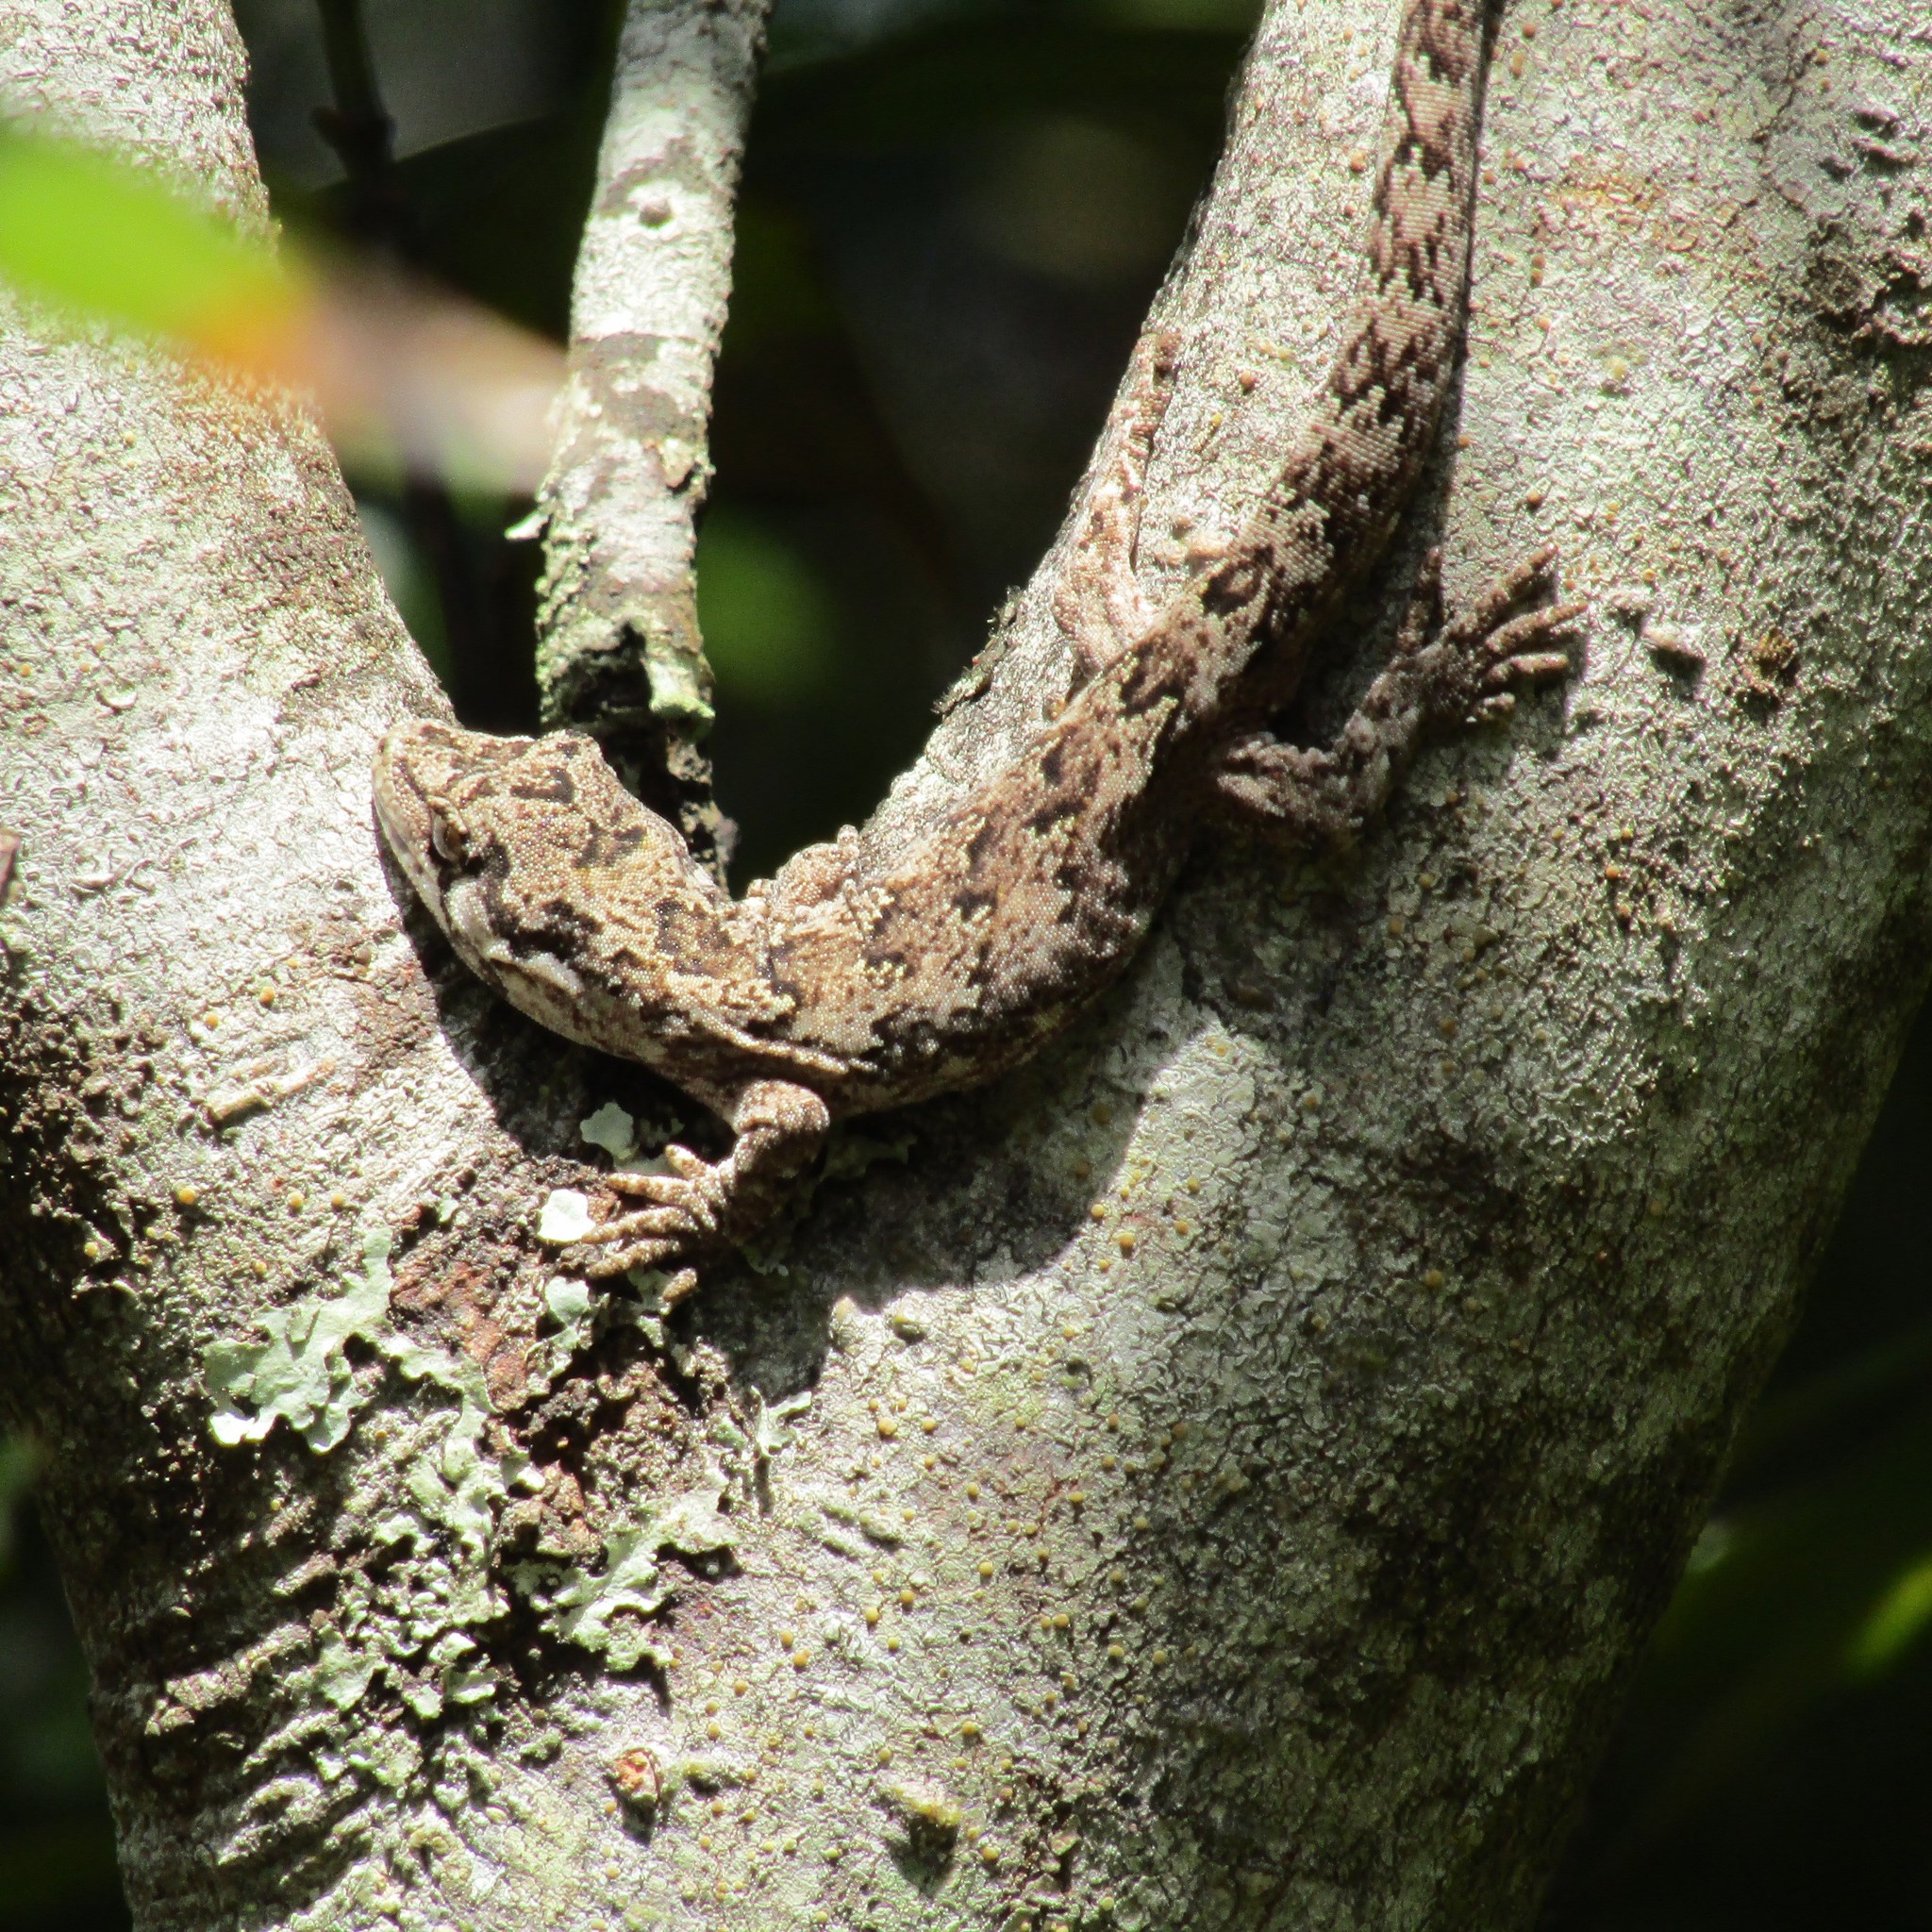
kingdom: Animalia
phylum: Chordata
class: Squamata
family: Diplodactylidae
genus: Mokopirirakau
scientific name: Mokopirirakau
